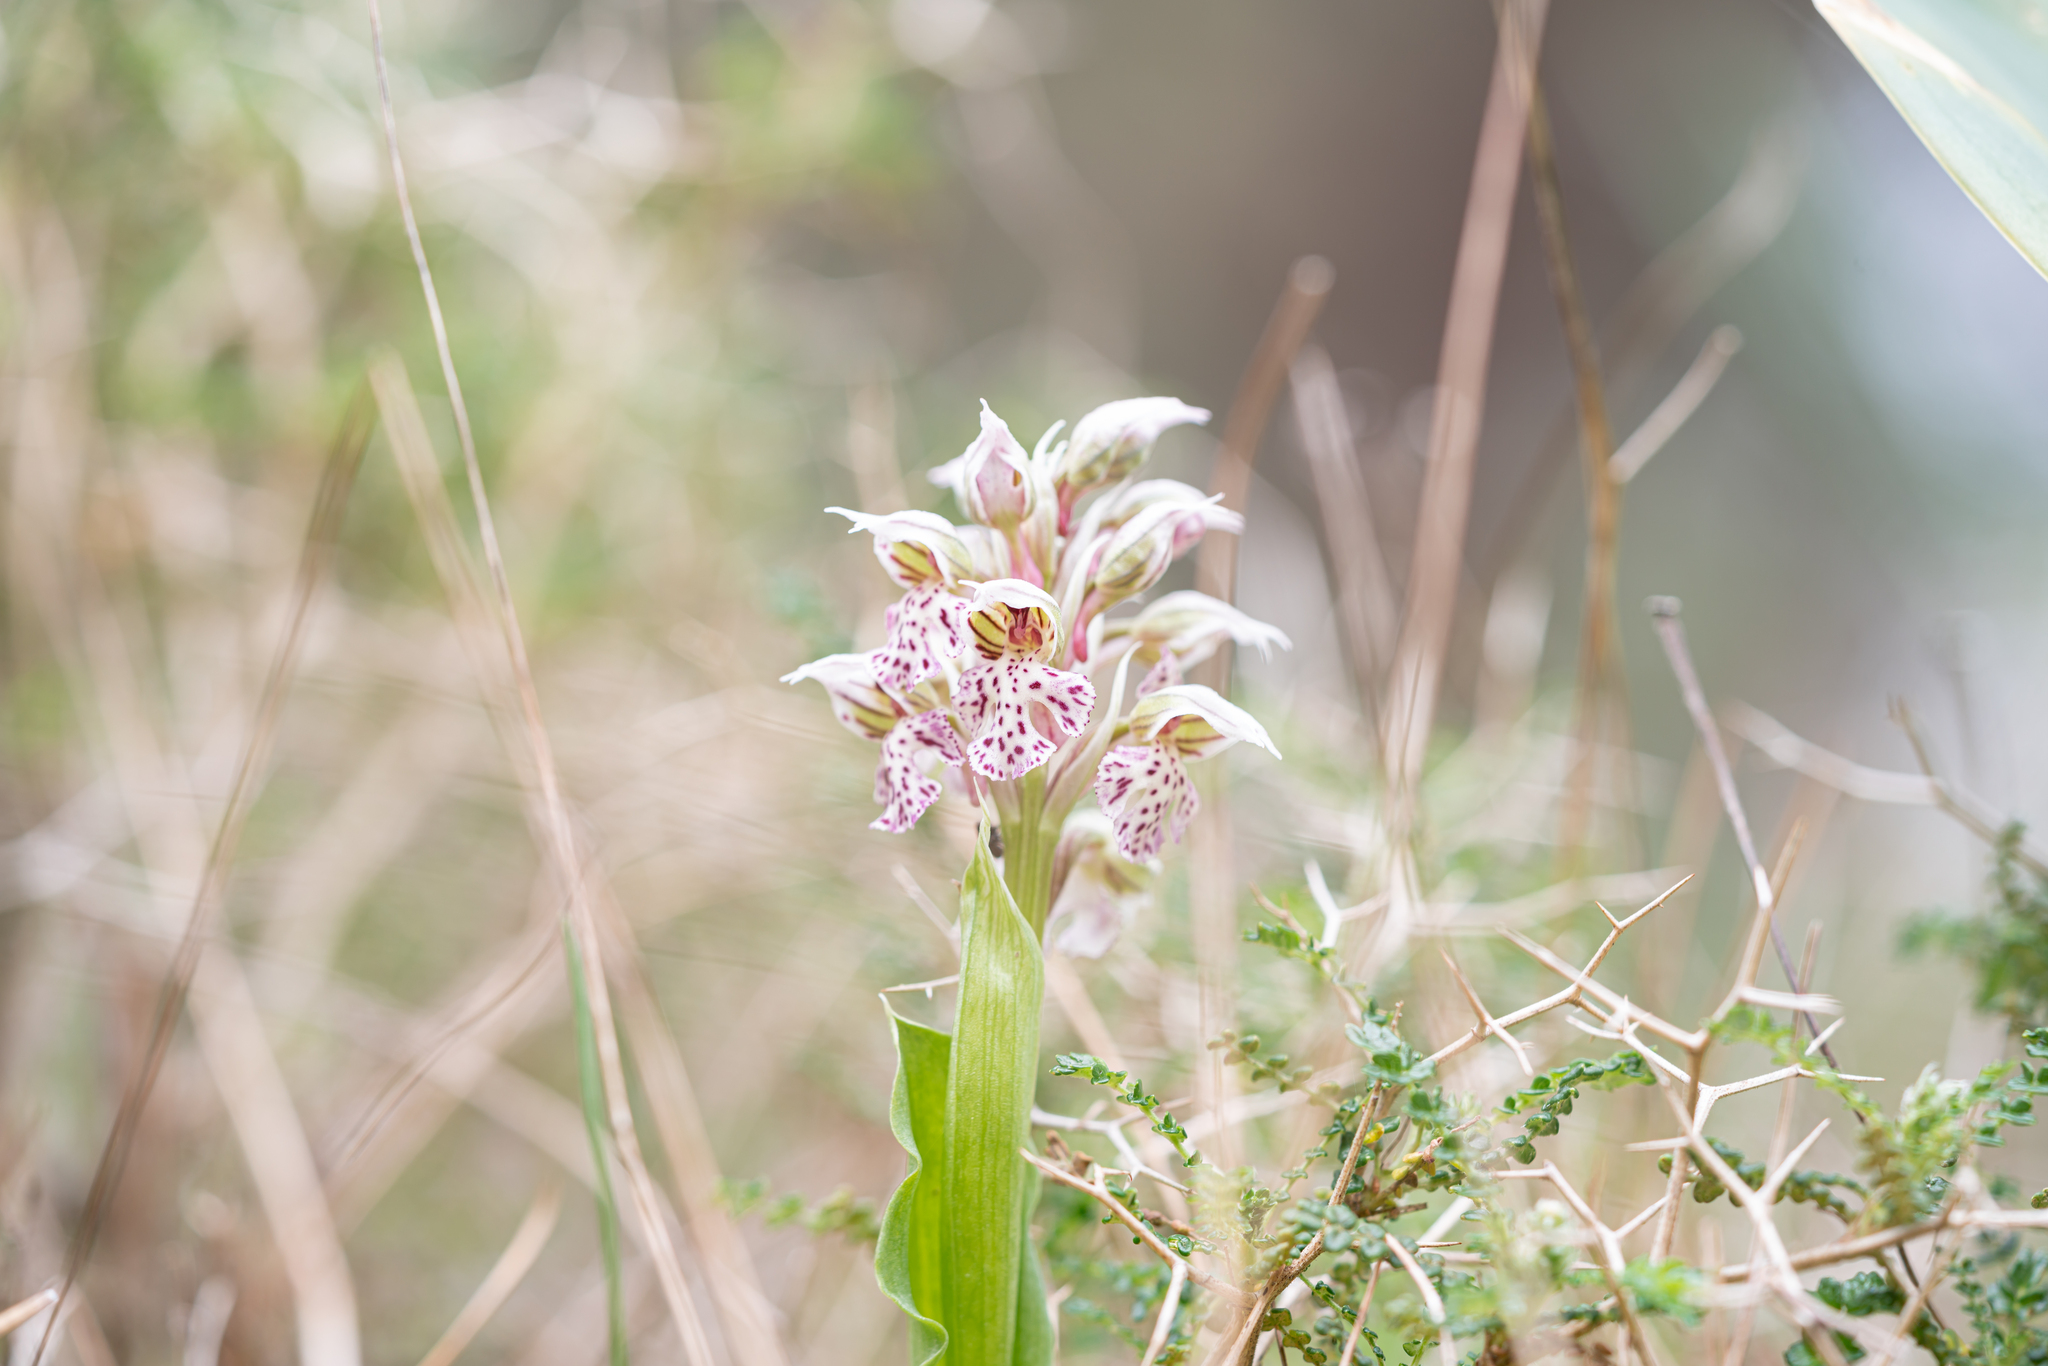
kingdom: Plantae
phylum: Tracheophyta
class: Liliopsida
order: Asparagales
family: Orchidaceae
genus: Neotinea
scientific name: Neotinea lactea
